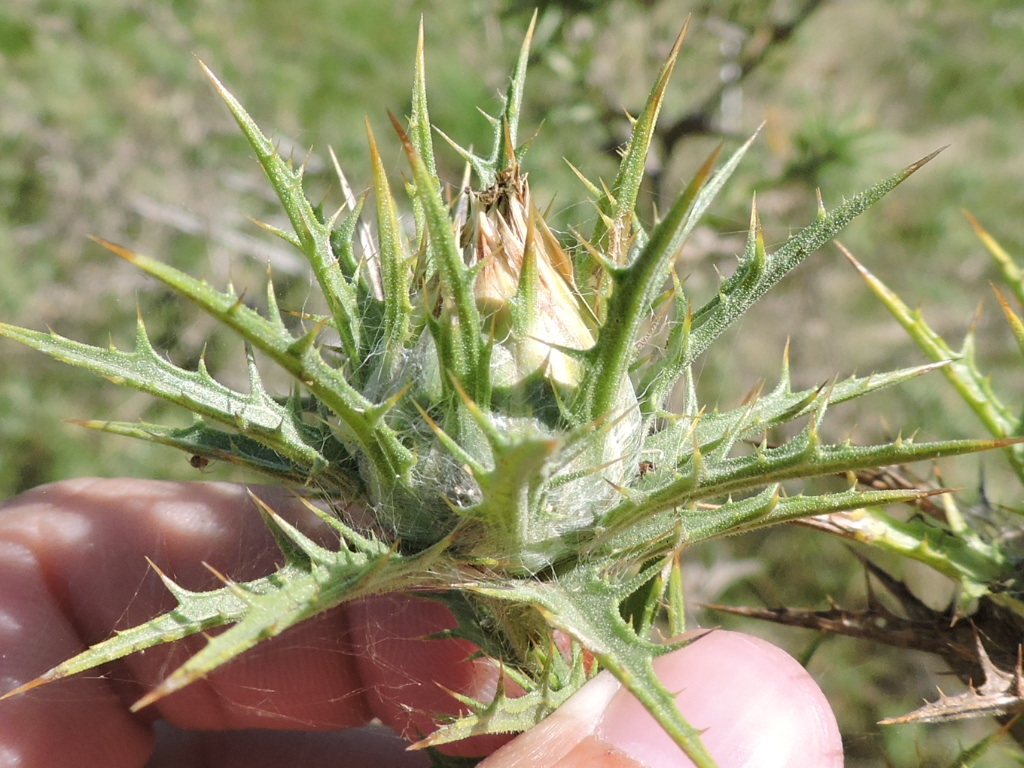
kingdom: Plantae
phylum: Tracheophyta
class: Magnoliopsida
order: Asterales
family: Asteraceae
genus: Carthamus
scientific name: Carthamus lanatus
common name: Downy safflower
